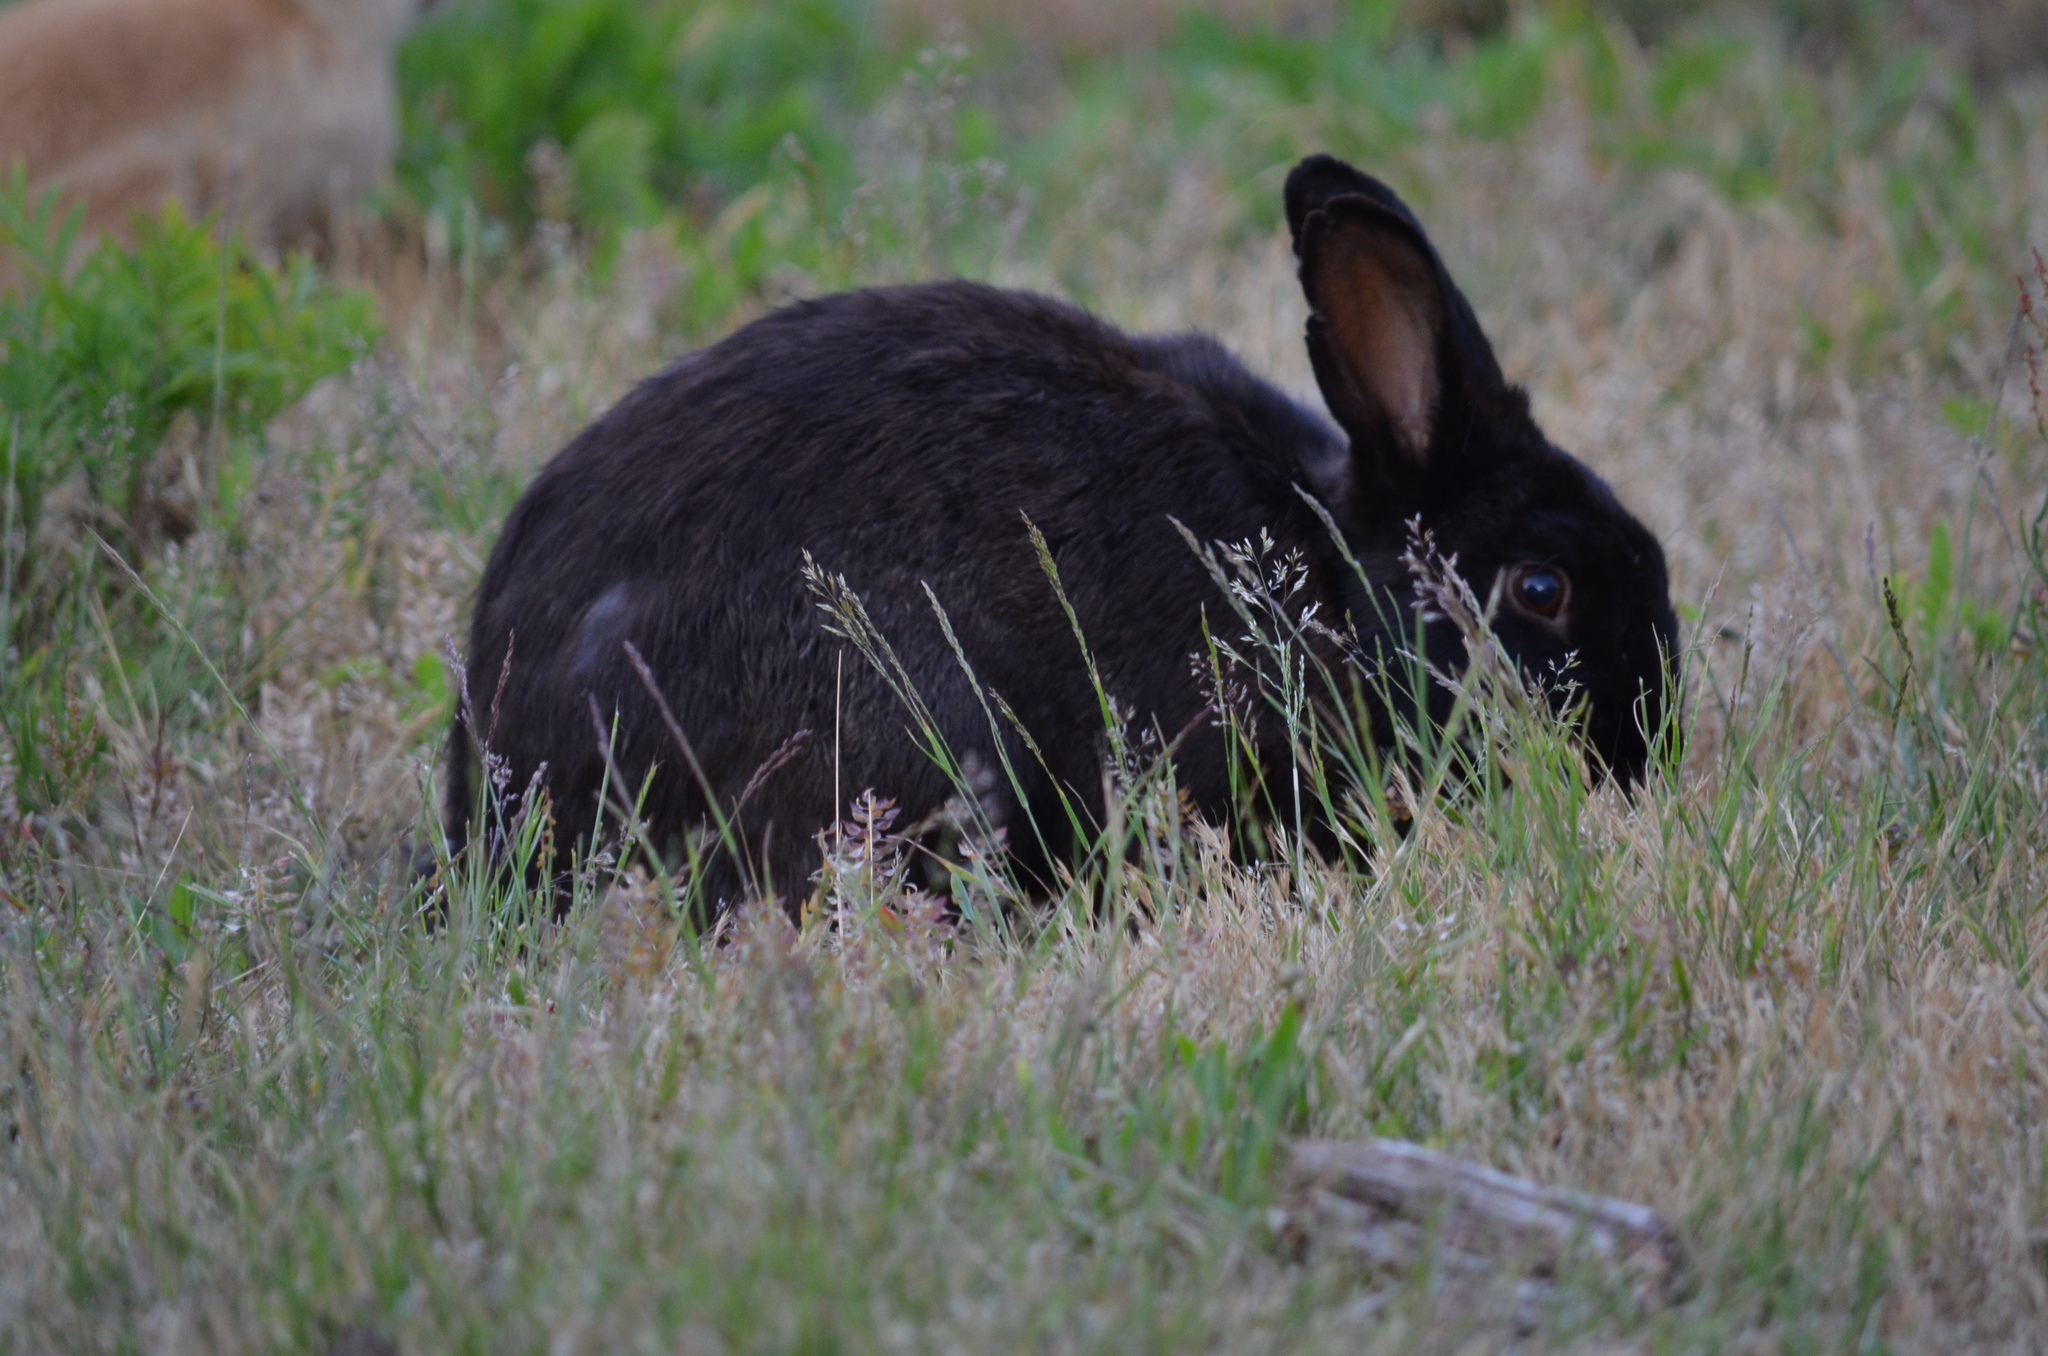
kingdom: Animalia
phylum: Chordata
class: Mammalia
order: Lagomorpha
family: Leporidae
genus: Oryctolagus
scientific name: Oryctolagus cuniculus
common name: European rabbit
